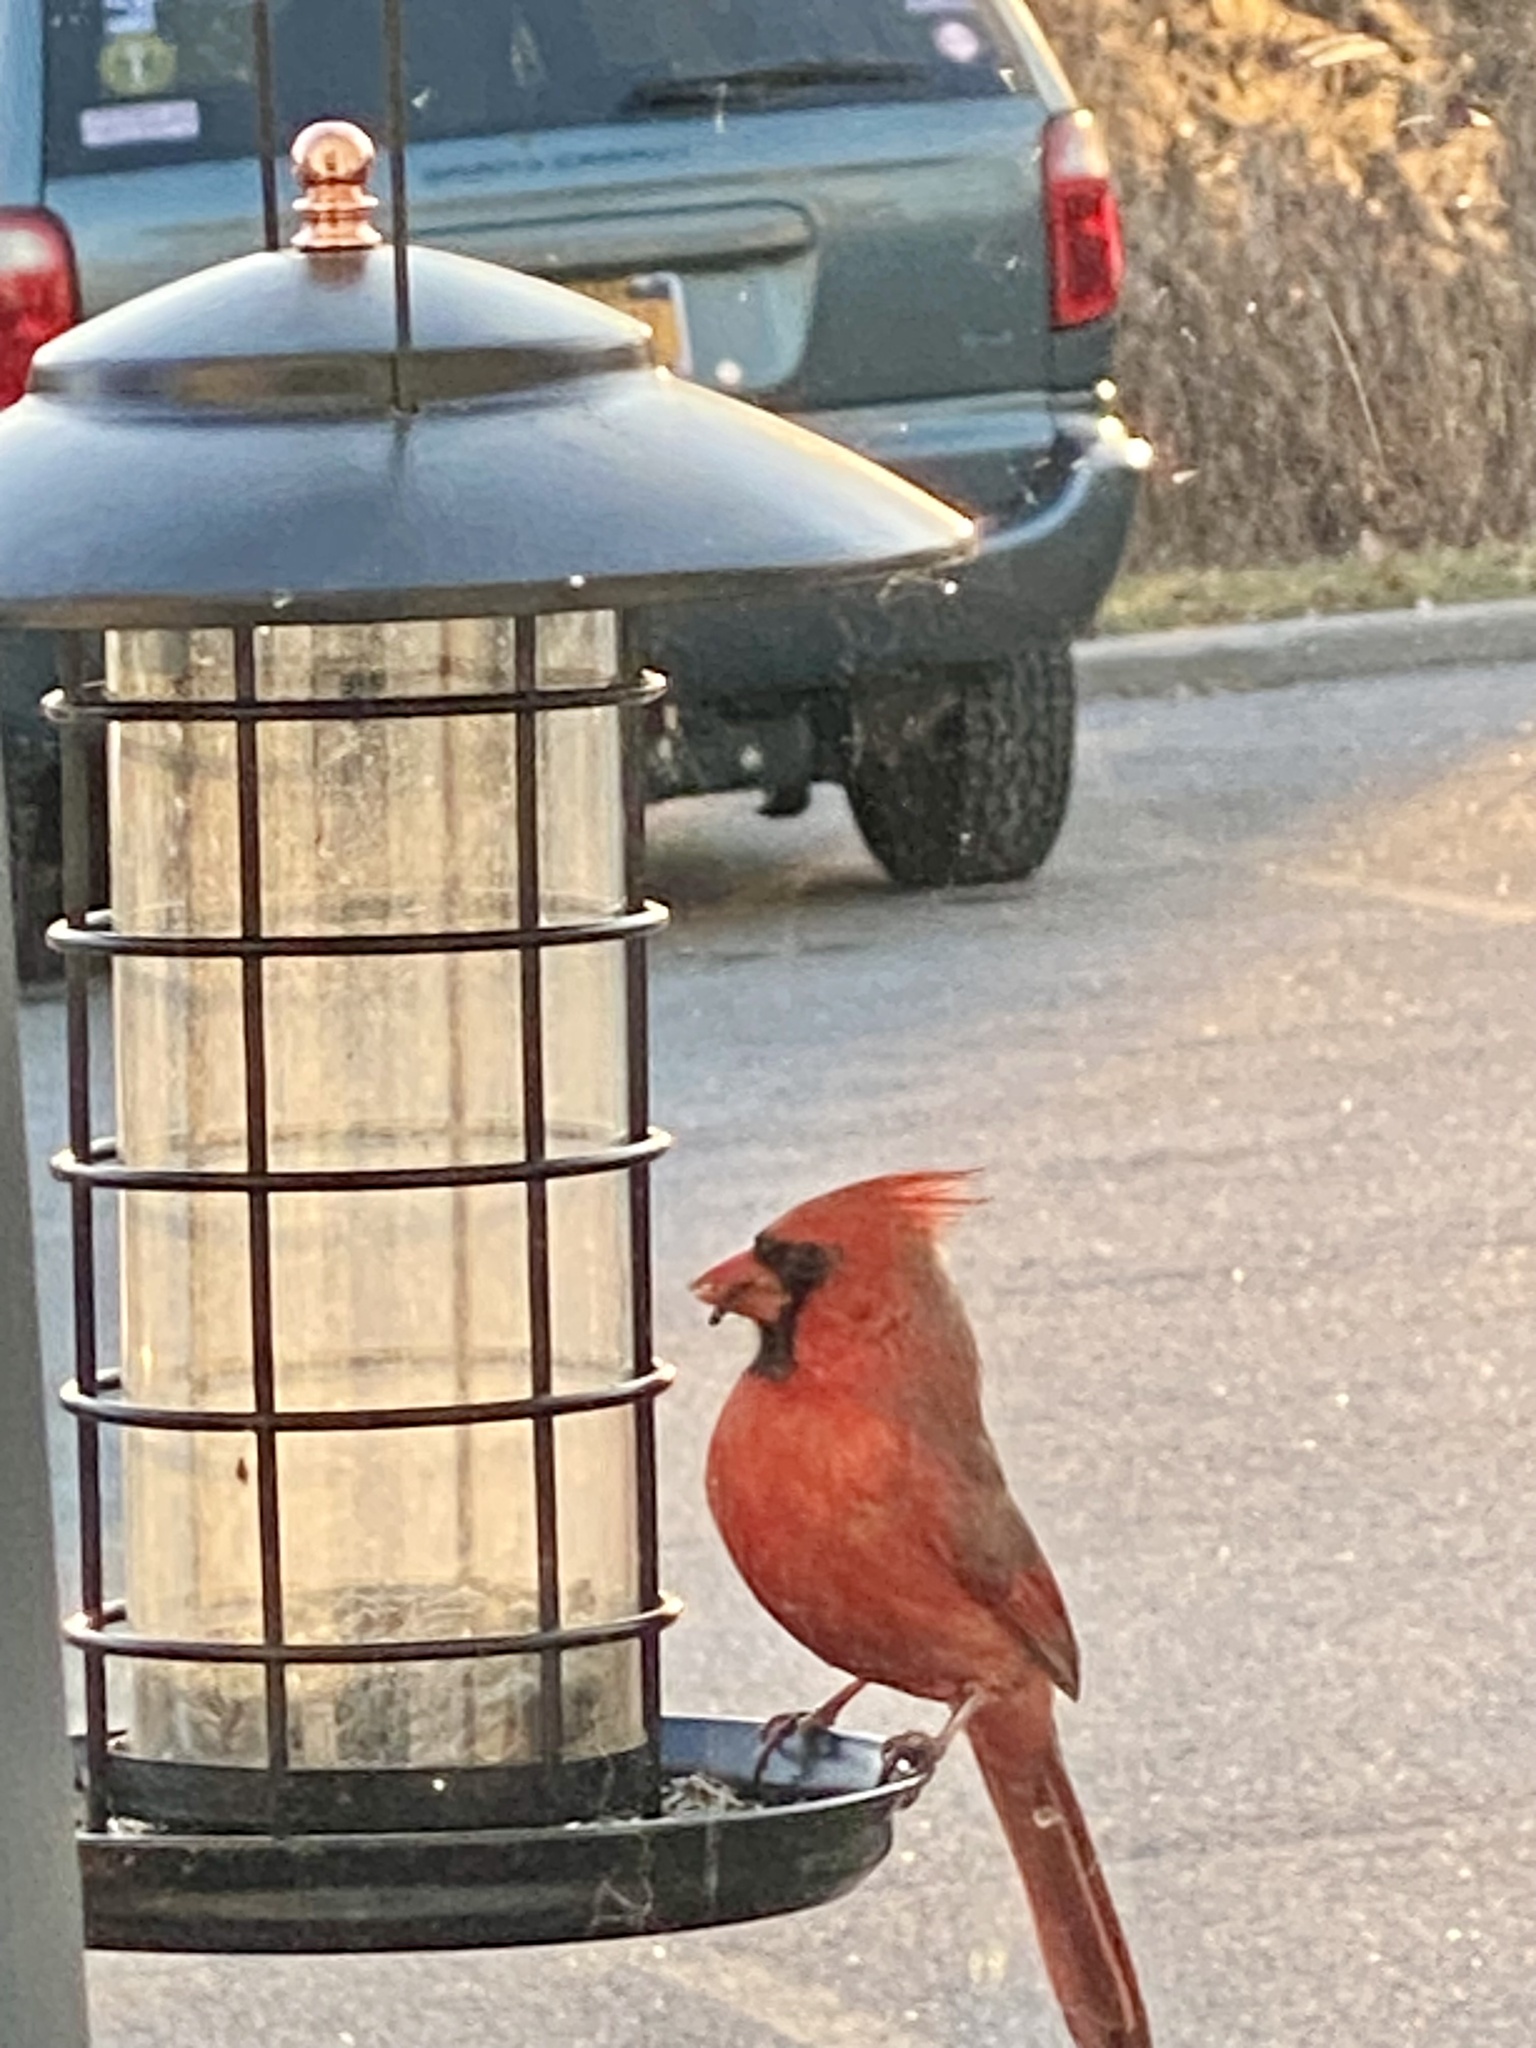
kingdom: Animalia
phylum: Chordata
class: Aves
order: Passeriformes
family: Cardinalidae
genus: Cardinalis
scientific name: Cardinalis cardinalis
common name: Northern cardinal
